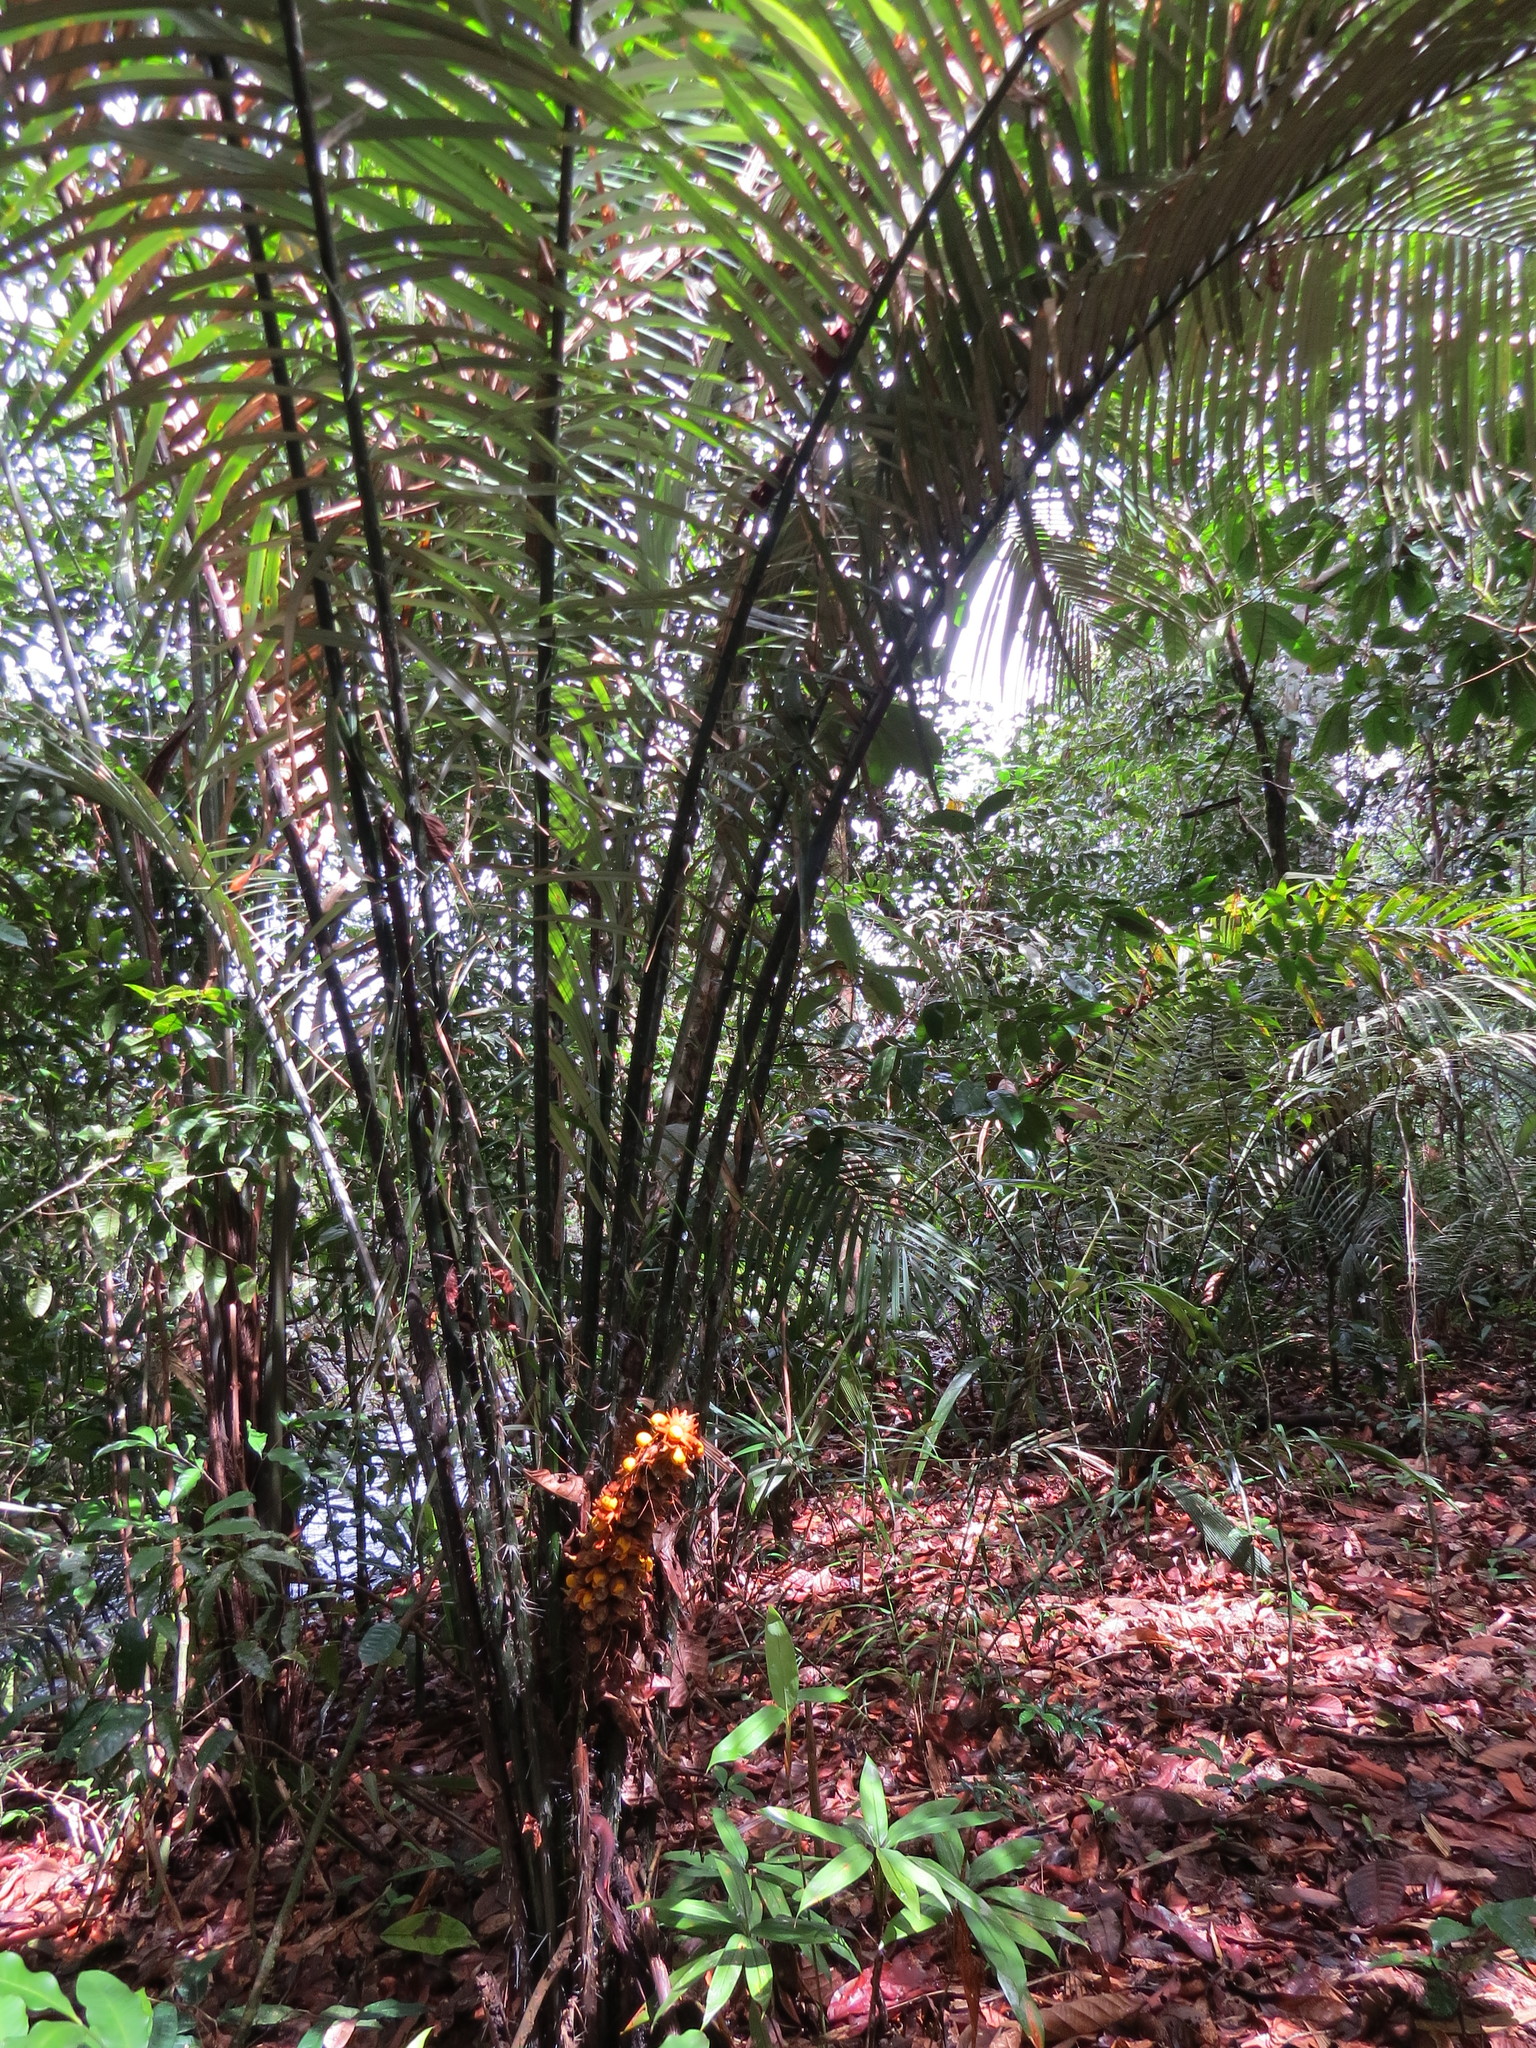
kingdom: Plantae
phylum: Tracheophyta
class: Liliopsida
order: Arecales
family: Arecaceae
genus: Astrocaryum
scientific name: Astrocaryum paramaca
